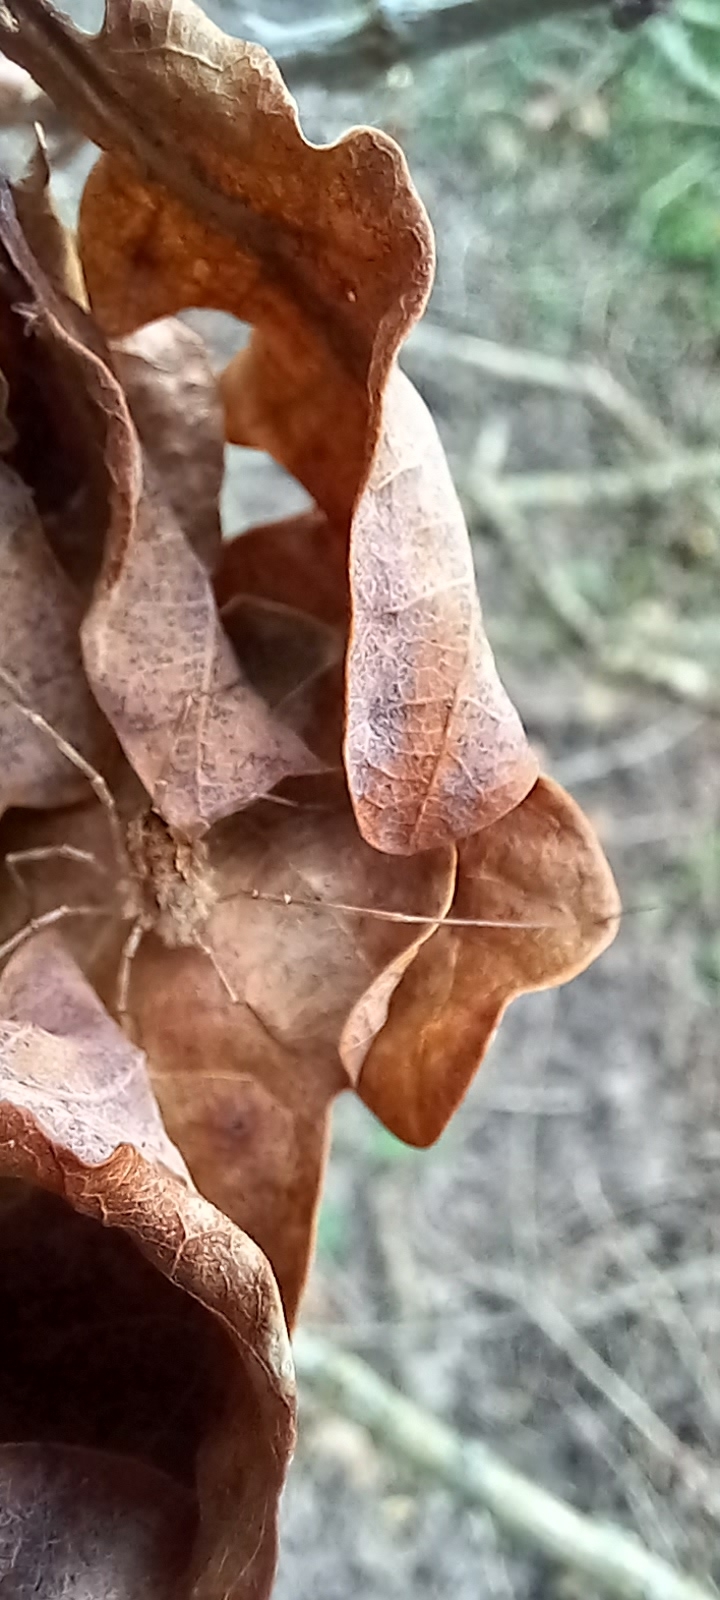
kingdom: Animalia
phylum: Arthropoda
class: Arachnida
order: Opiliones
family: Phalangiidae
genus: Rilaena
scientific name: Rilaena triangularis
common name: Spring harvestman
